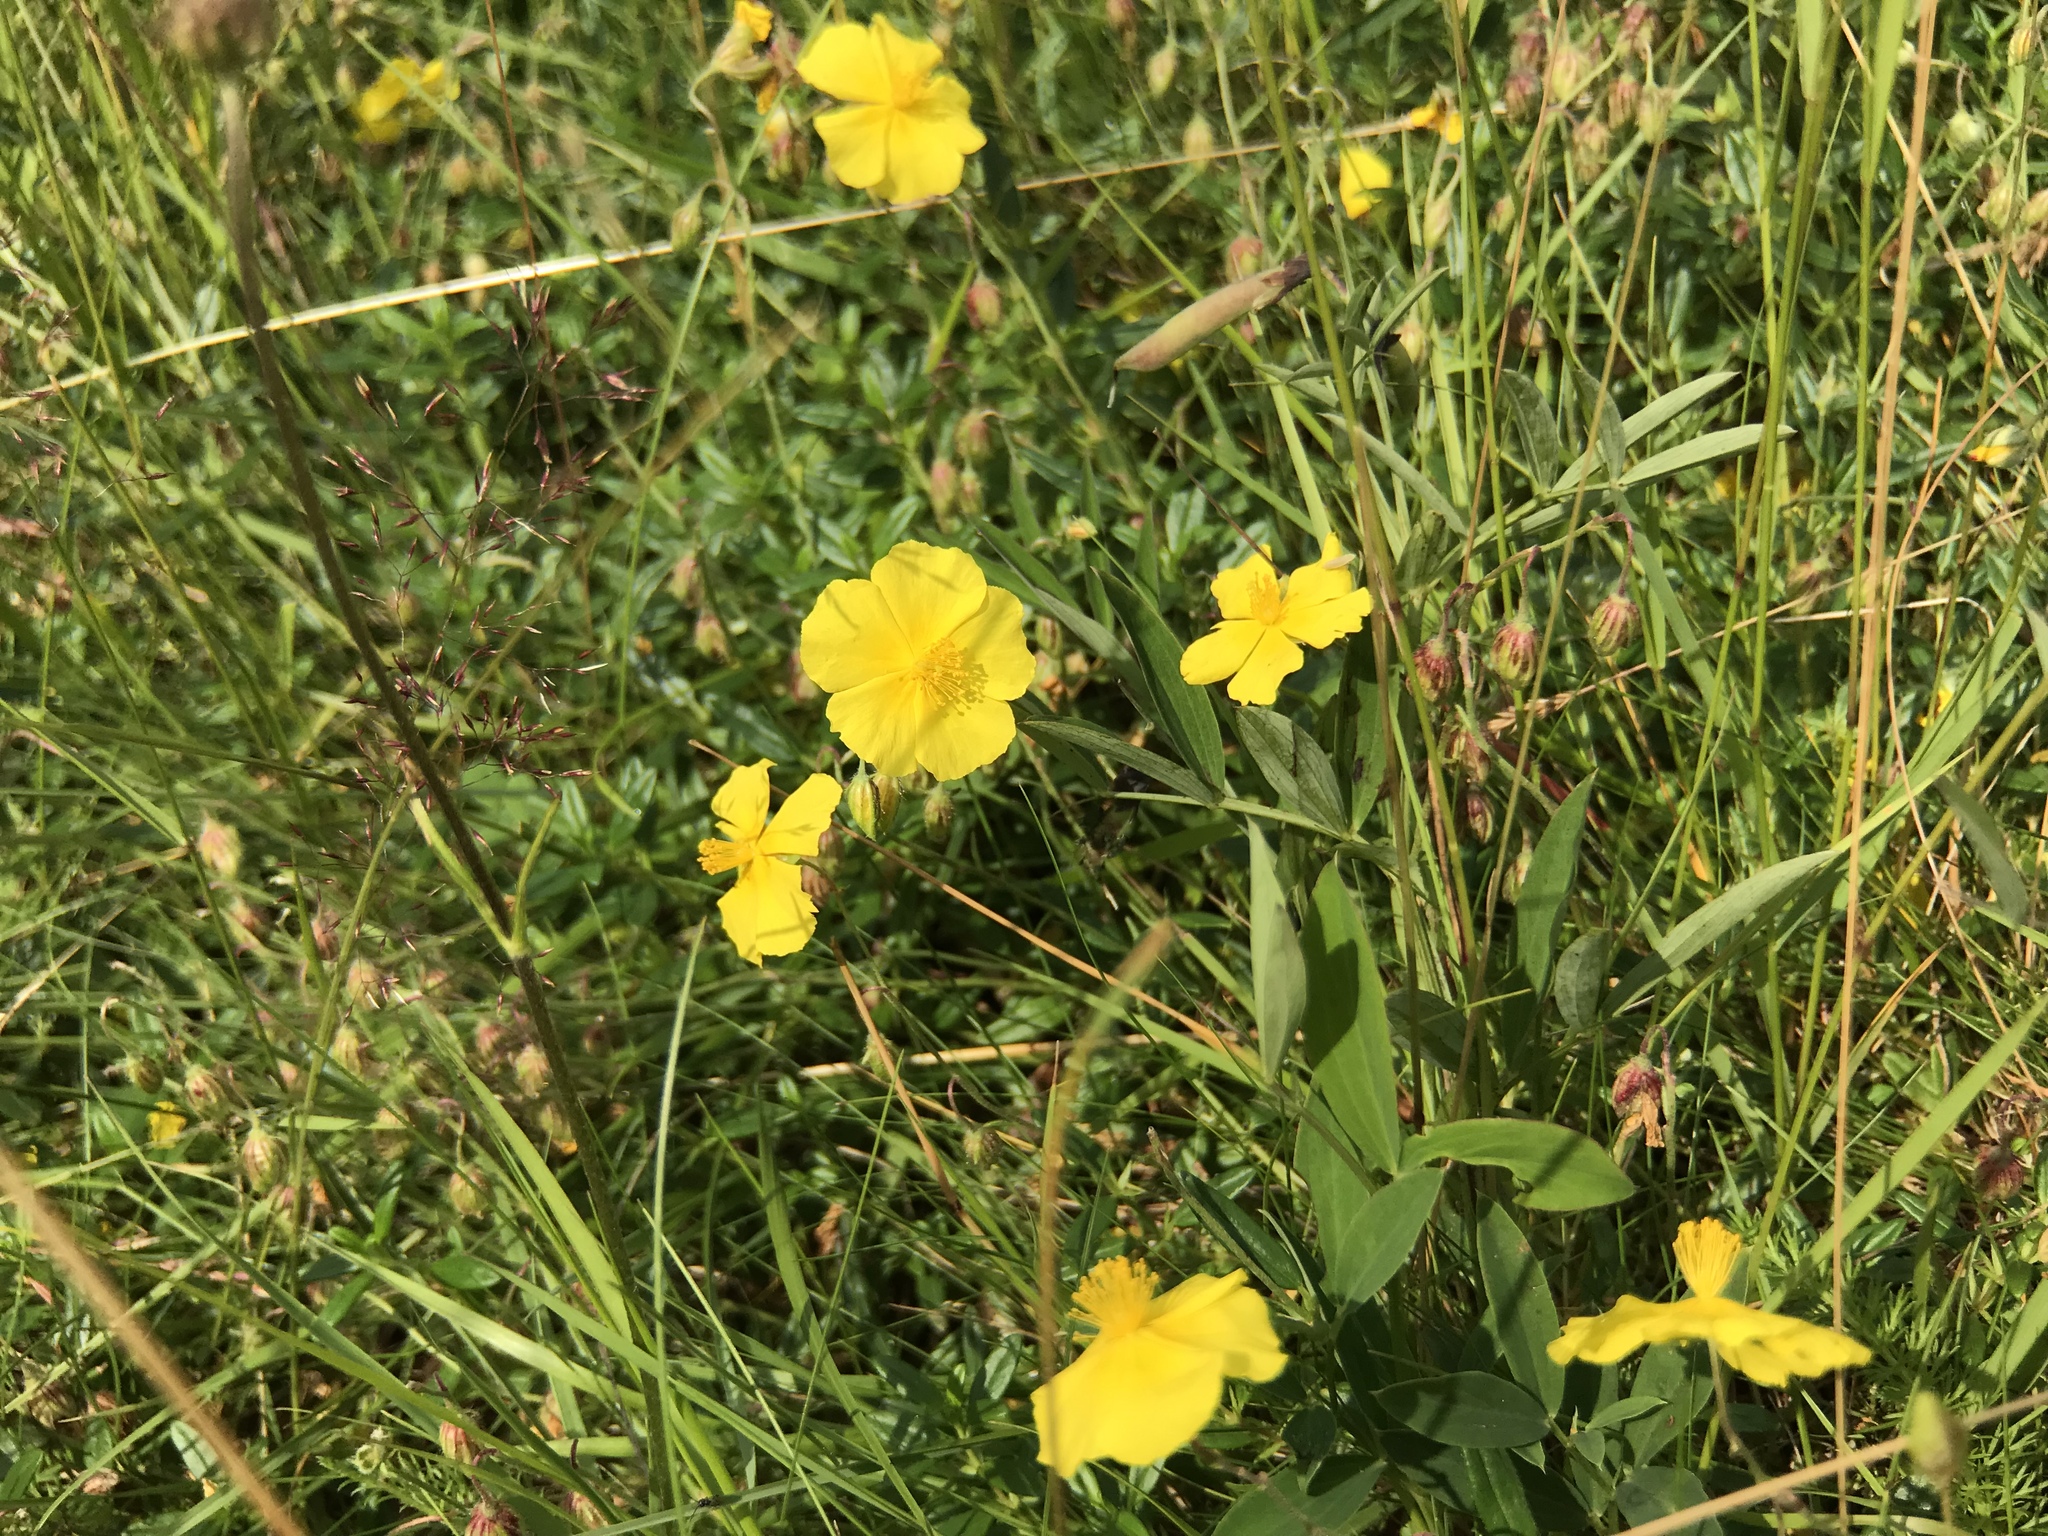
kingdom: Plantae
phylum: Tracheophyta
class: Magnoliopsida
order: Malvales
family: Cistaceae
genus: Helianthemum
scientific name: Helianthemum nummularium
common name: Common rock-rose
